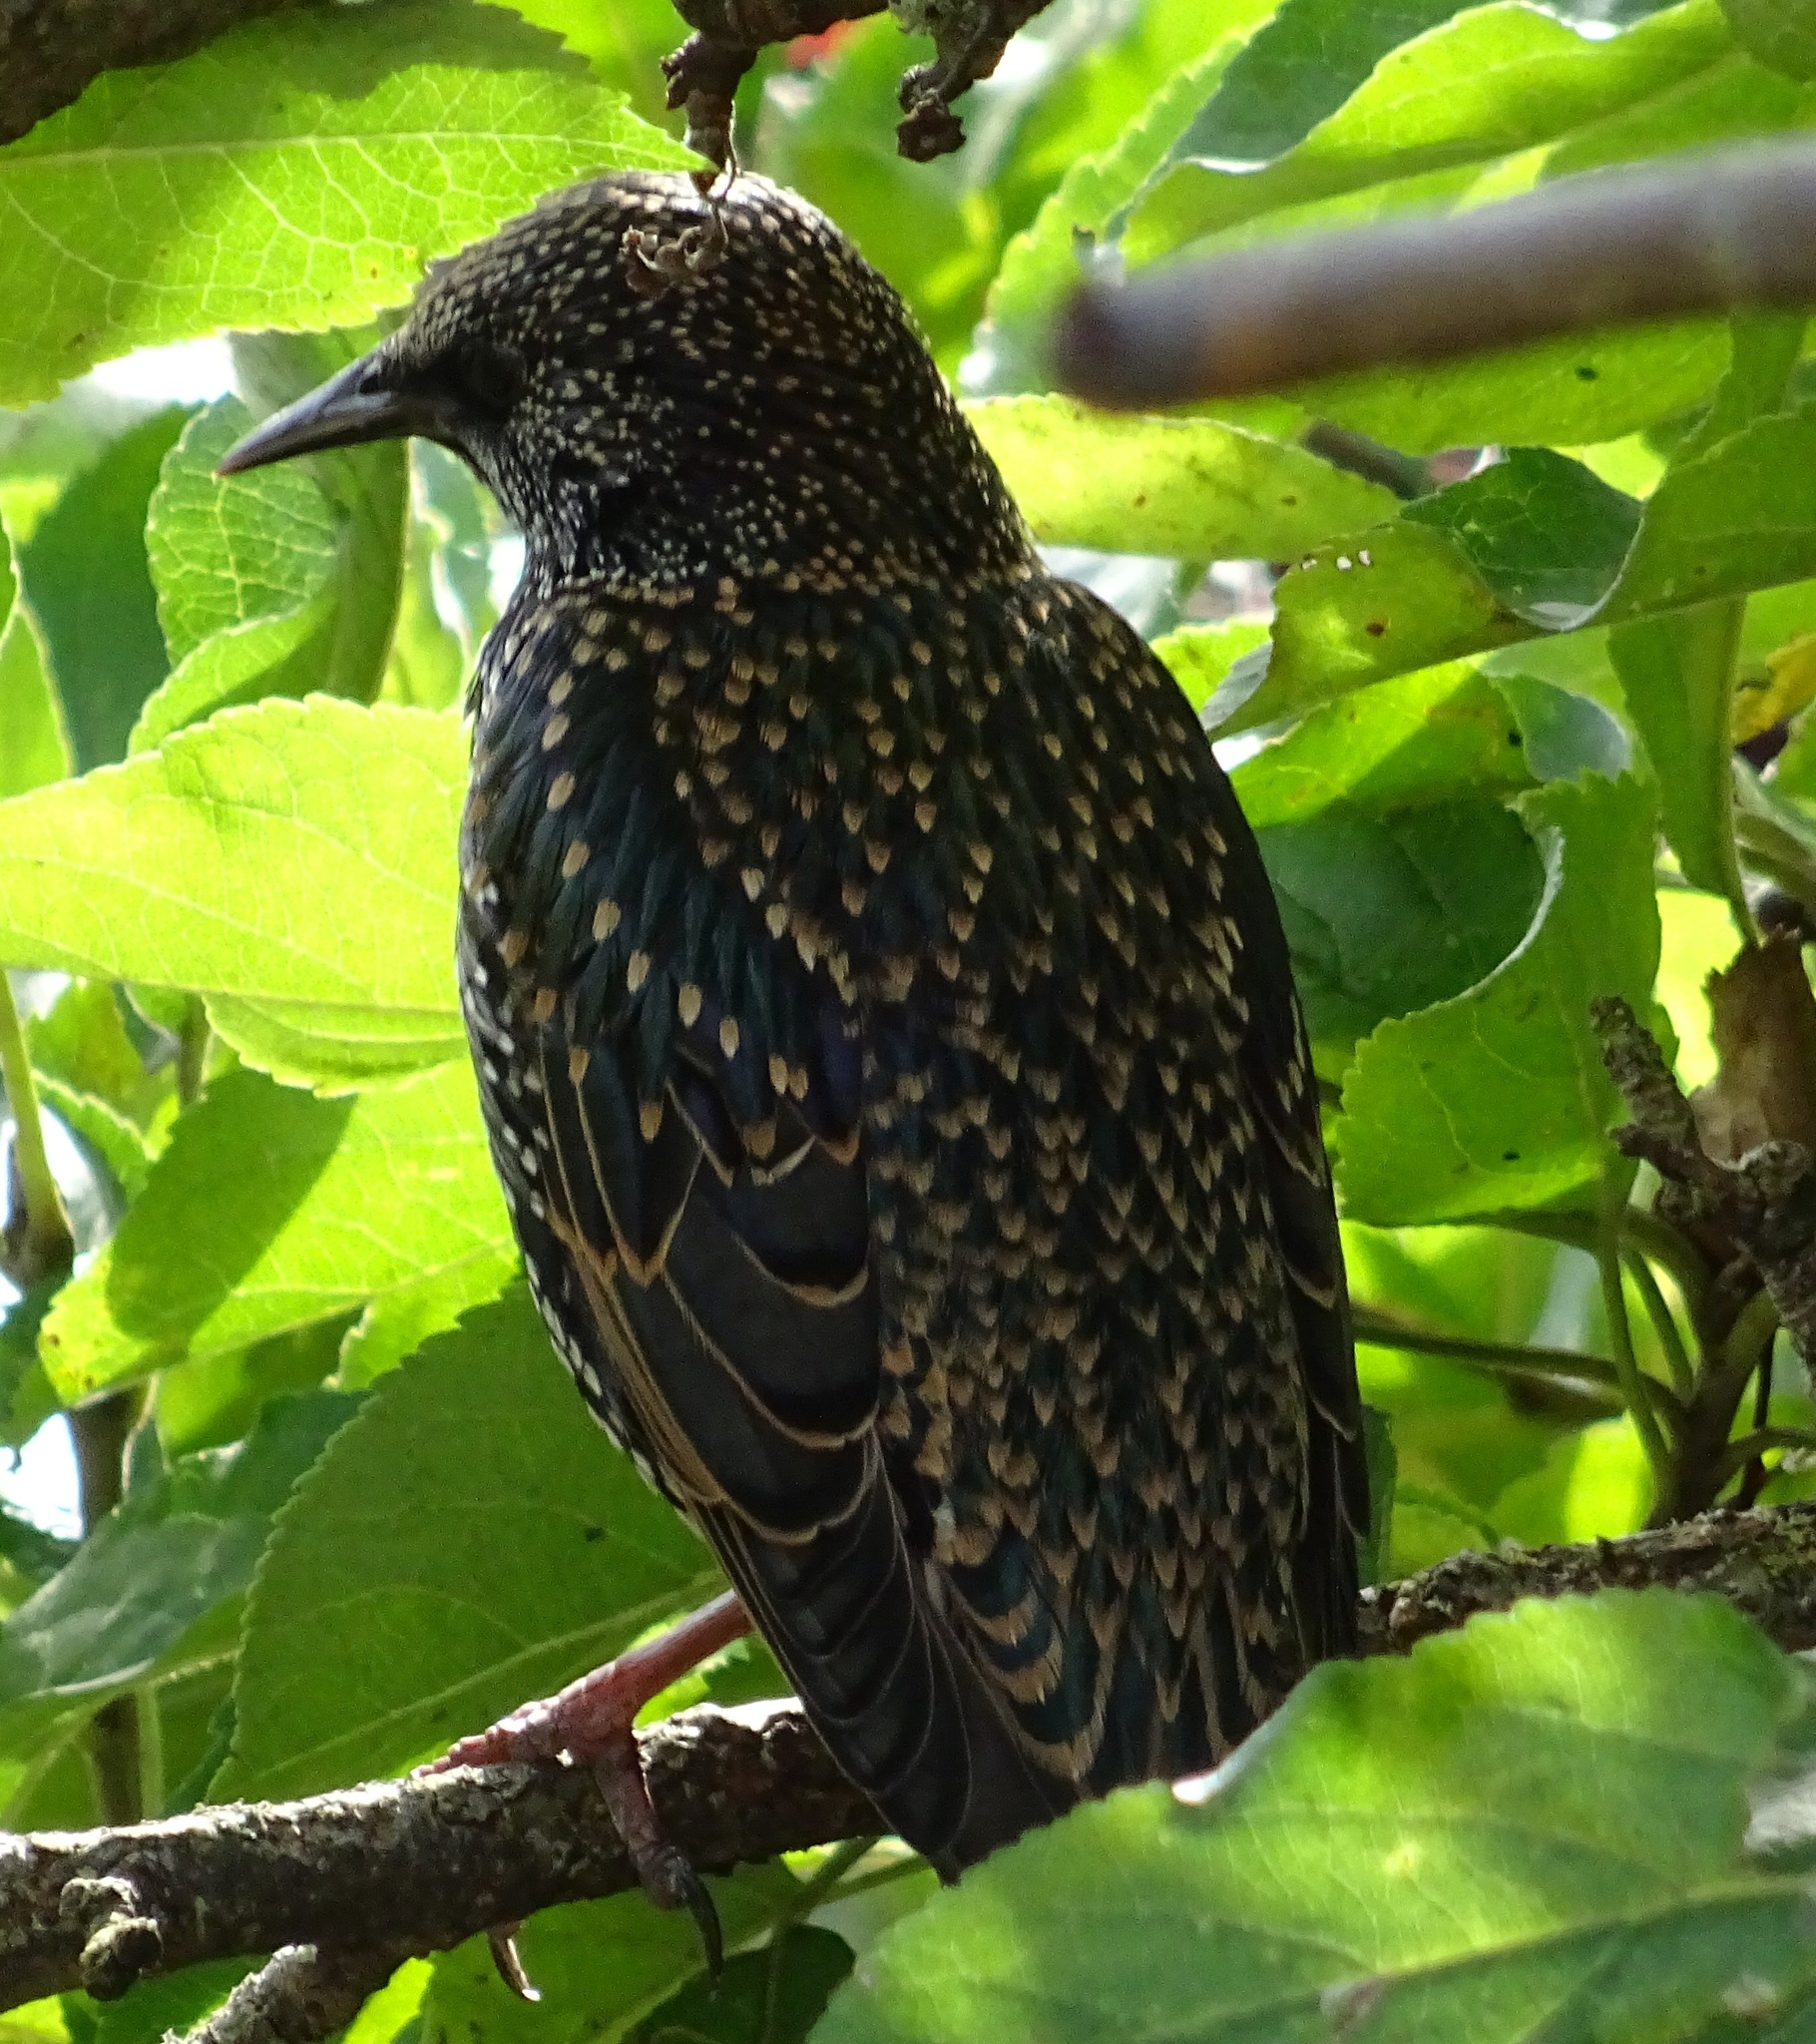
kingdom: Animalia
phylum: Chordata
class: Aves
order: Passeriformes
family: Sturnidae
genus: Sturnus
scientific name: Sturnus vulgaris
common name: Common starling
